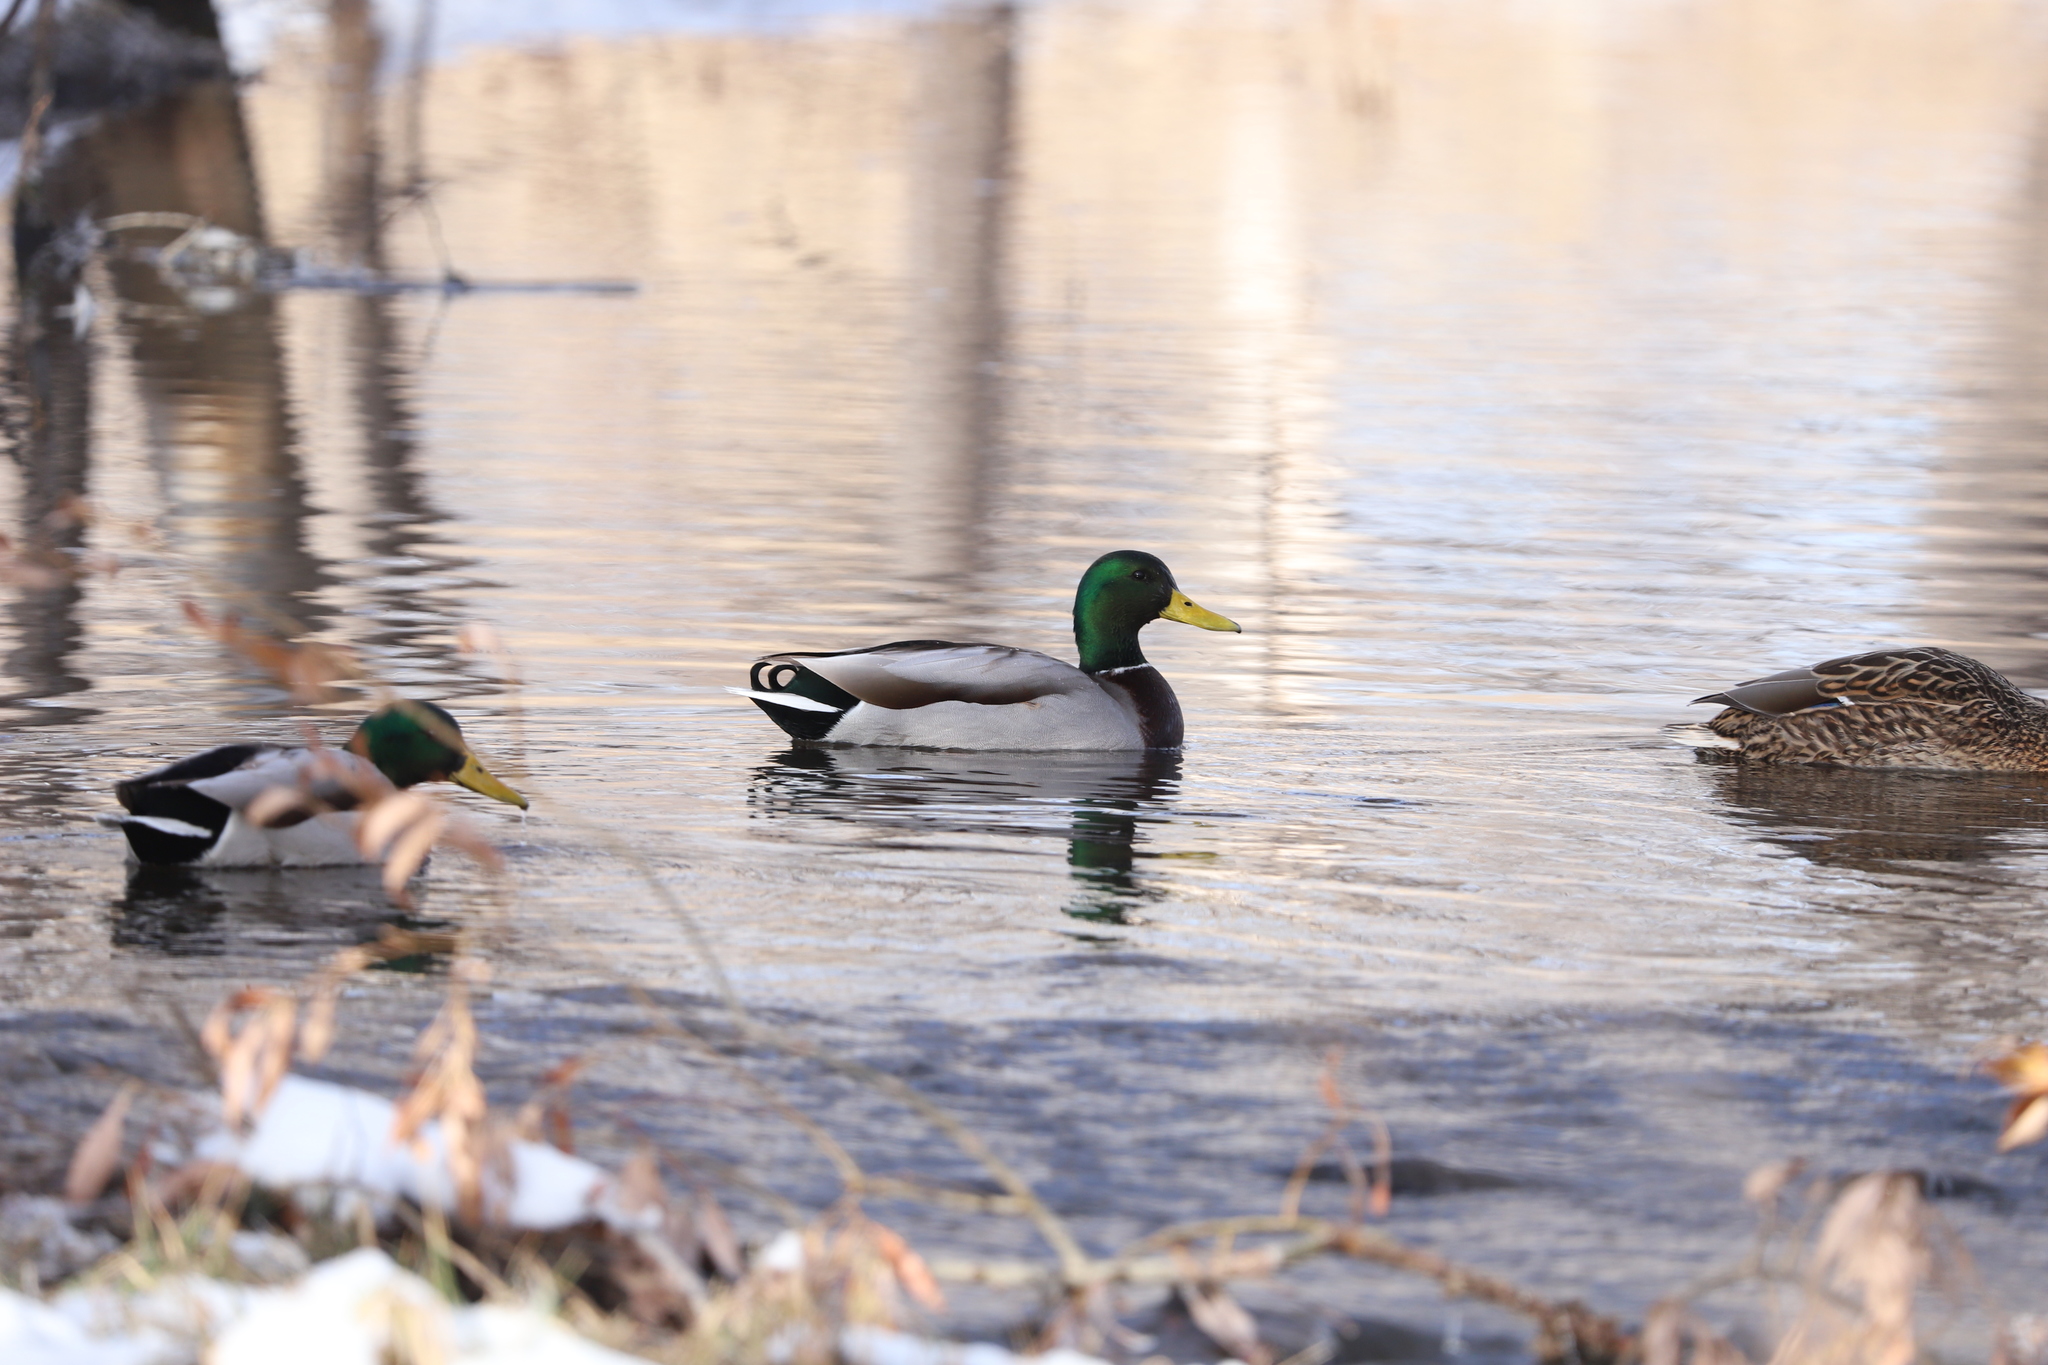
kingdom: Animalia
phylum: Chordata
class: Aves
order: Anseriformes
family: Anatidae
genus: Anas
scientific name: Anas platyrhynchos
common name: Mallard
